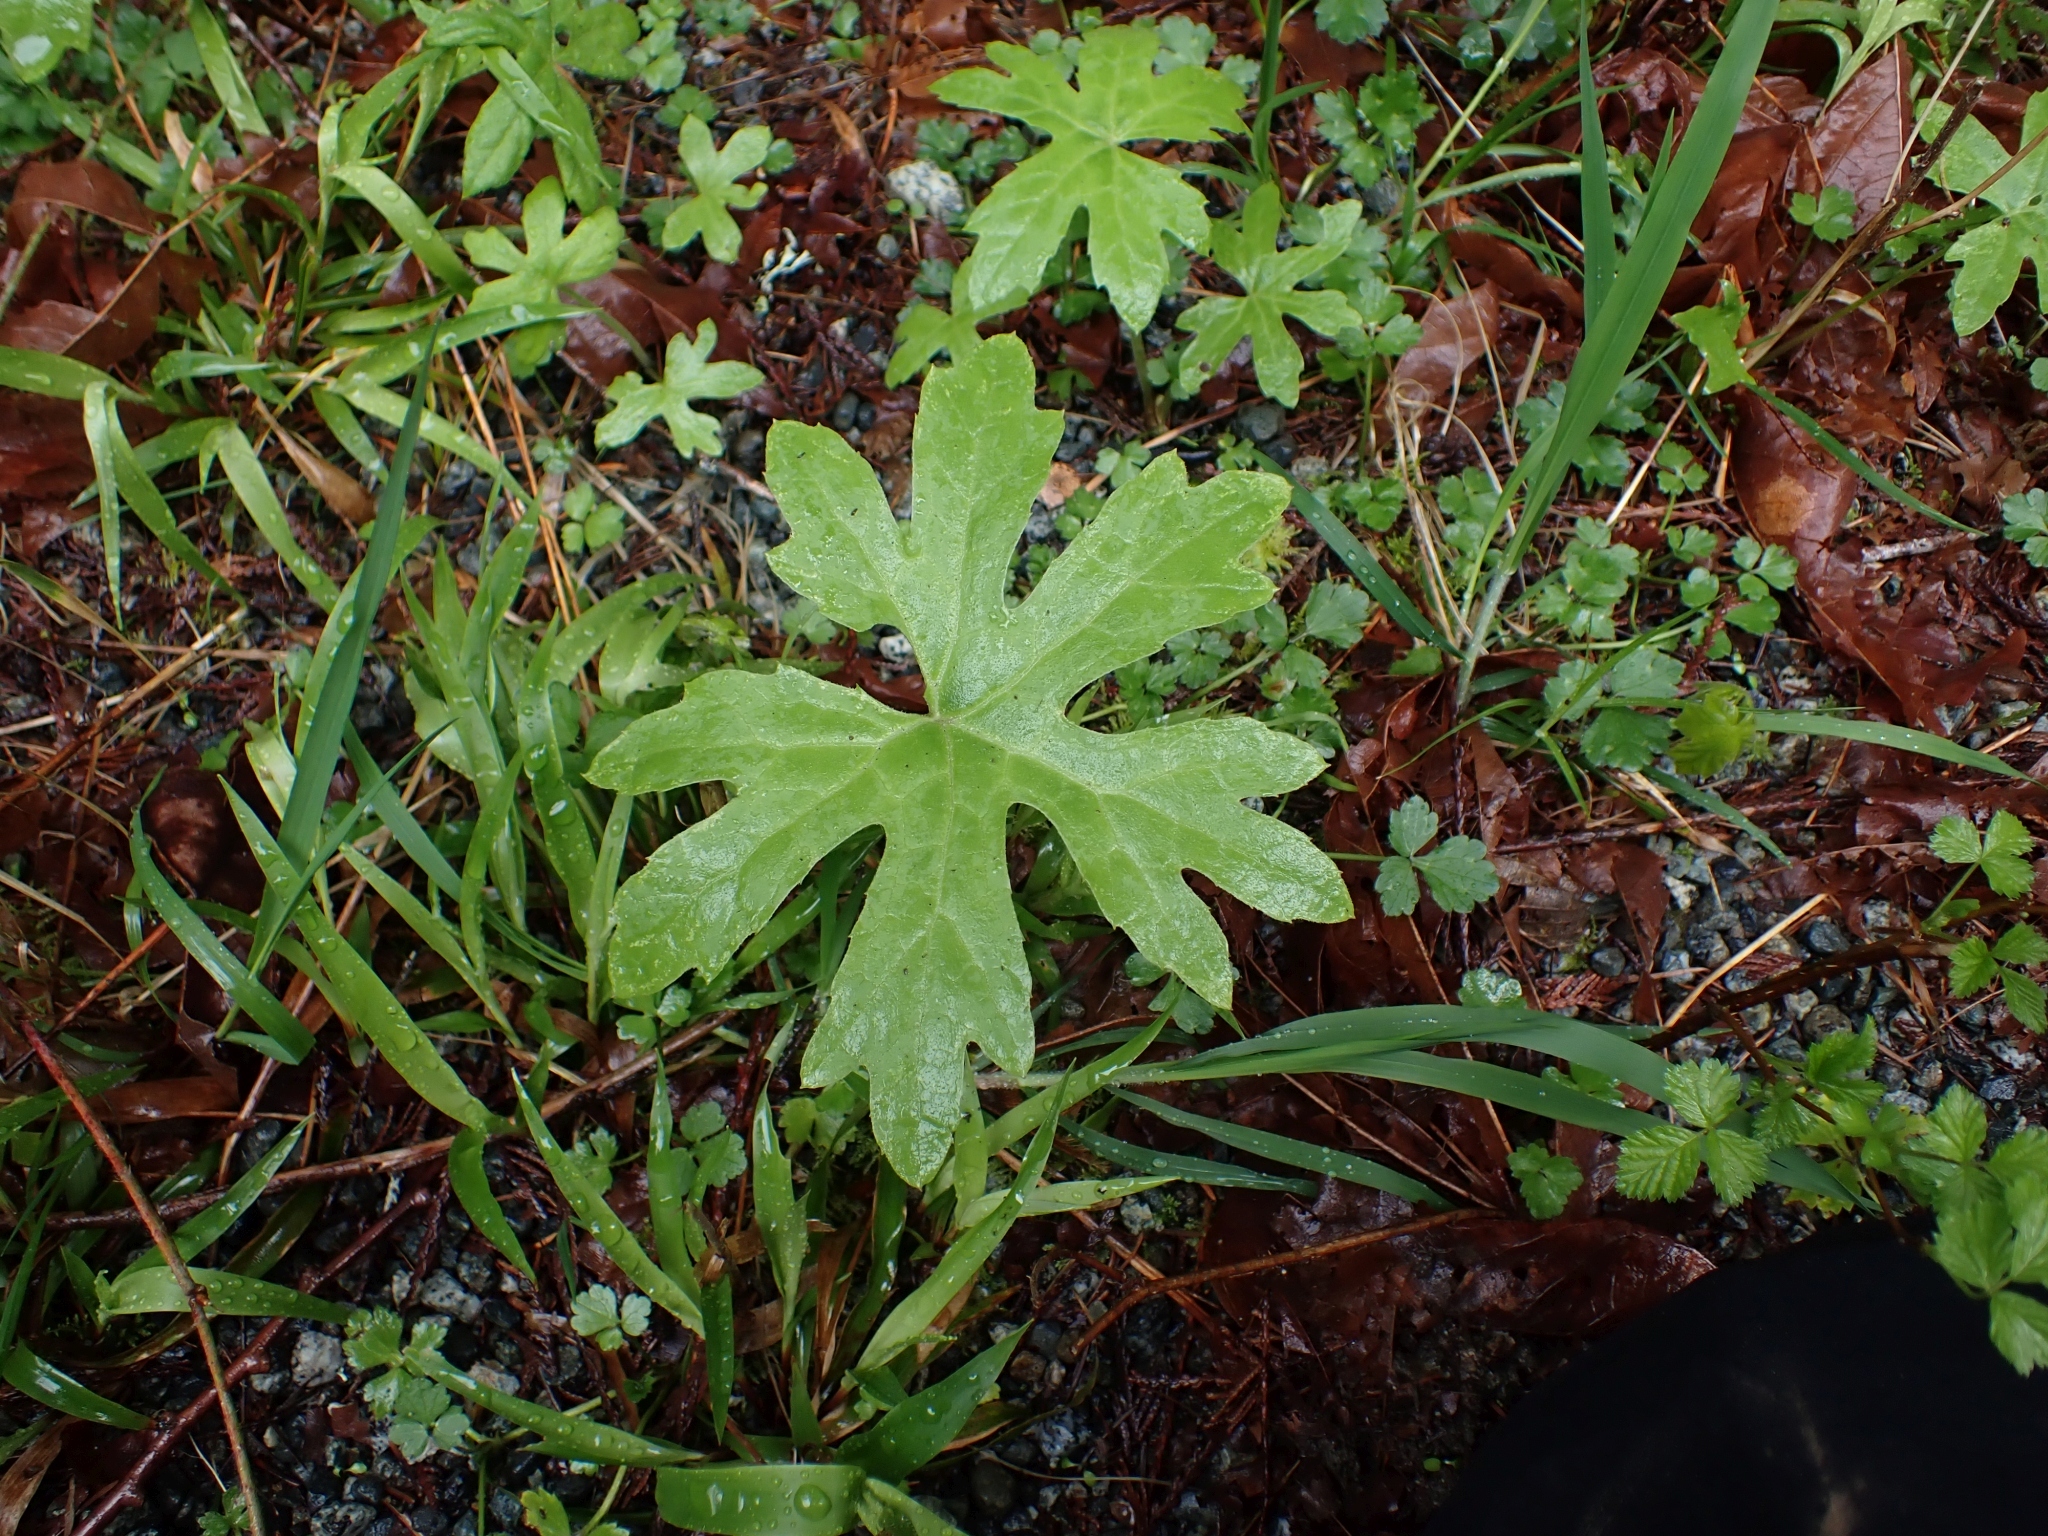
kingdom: Plantae
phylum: Tracheophyta
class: Magnoliopsida
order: Asterales
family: Asteraceae
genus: Petasites
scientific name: Petasites frigidus
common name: Arctic butterbur
